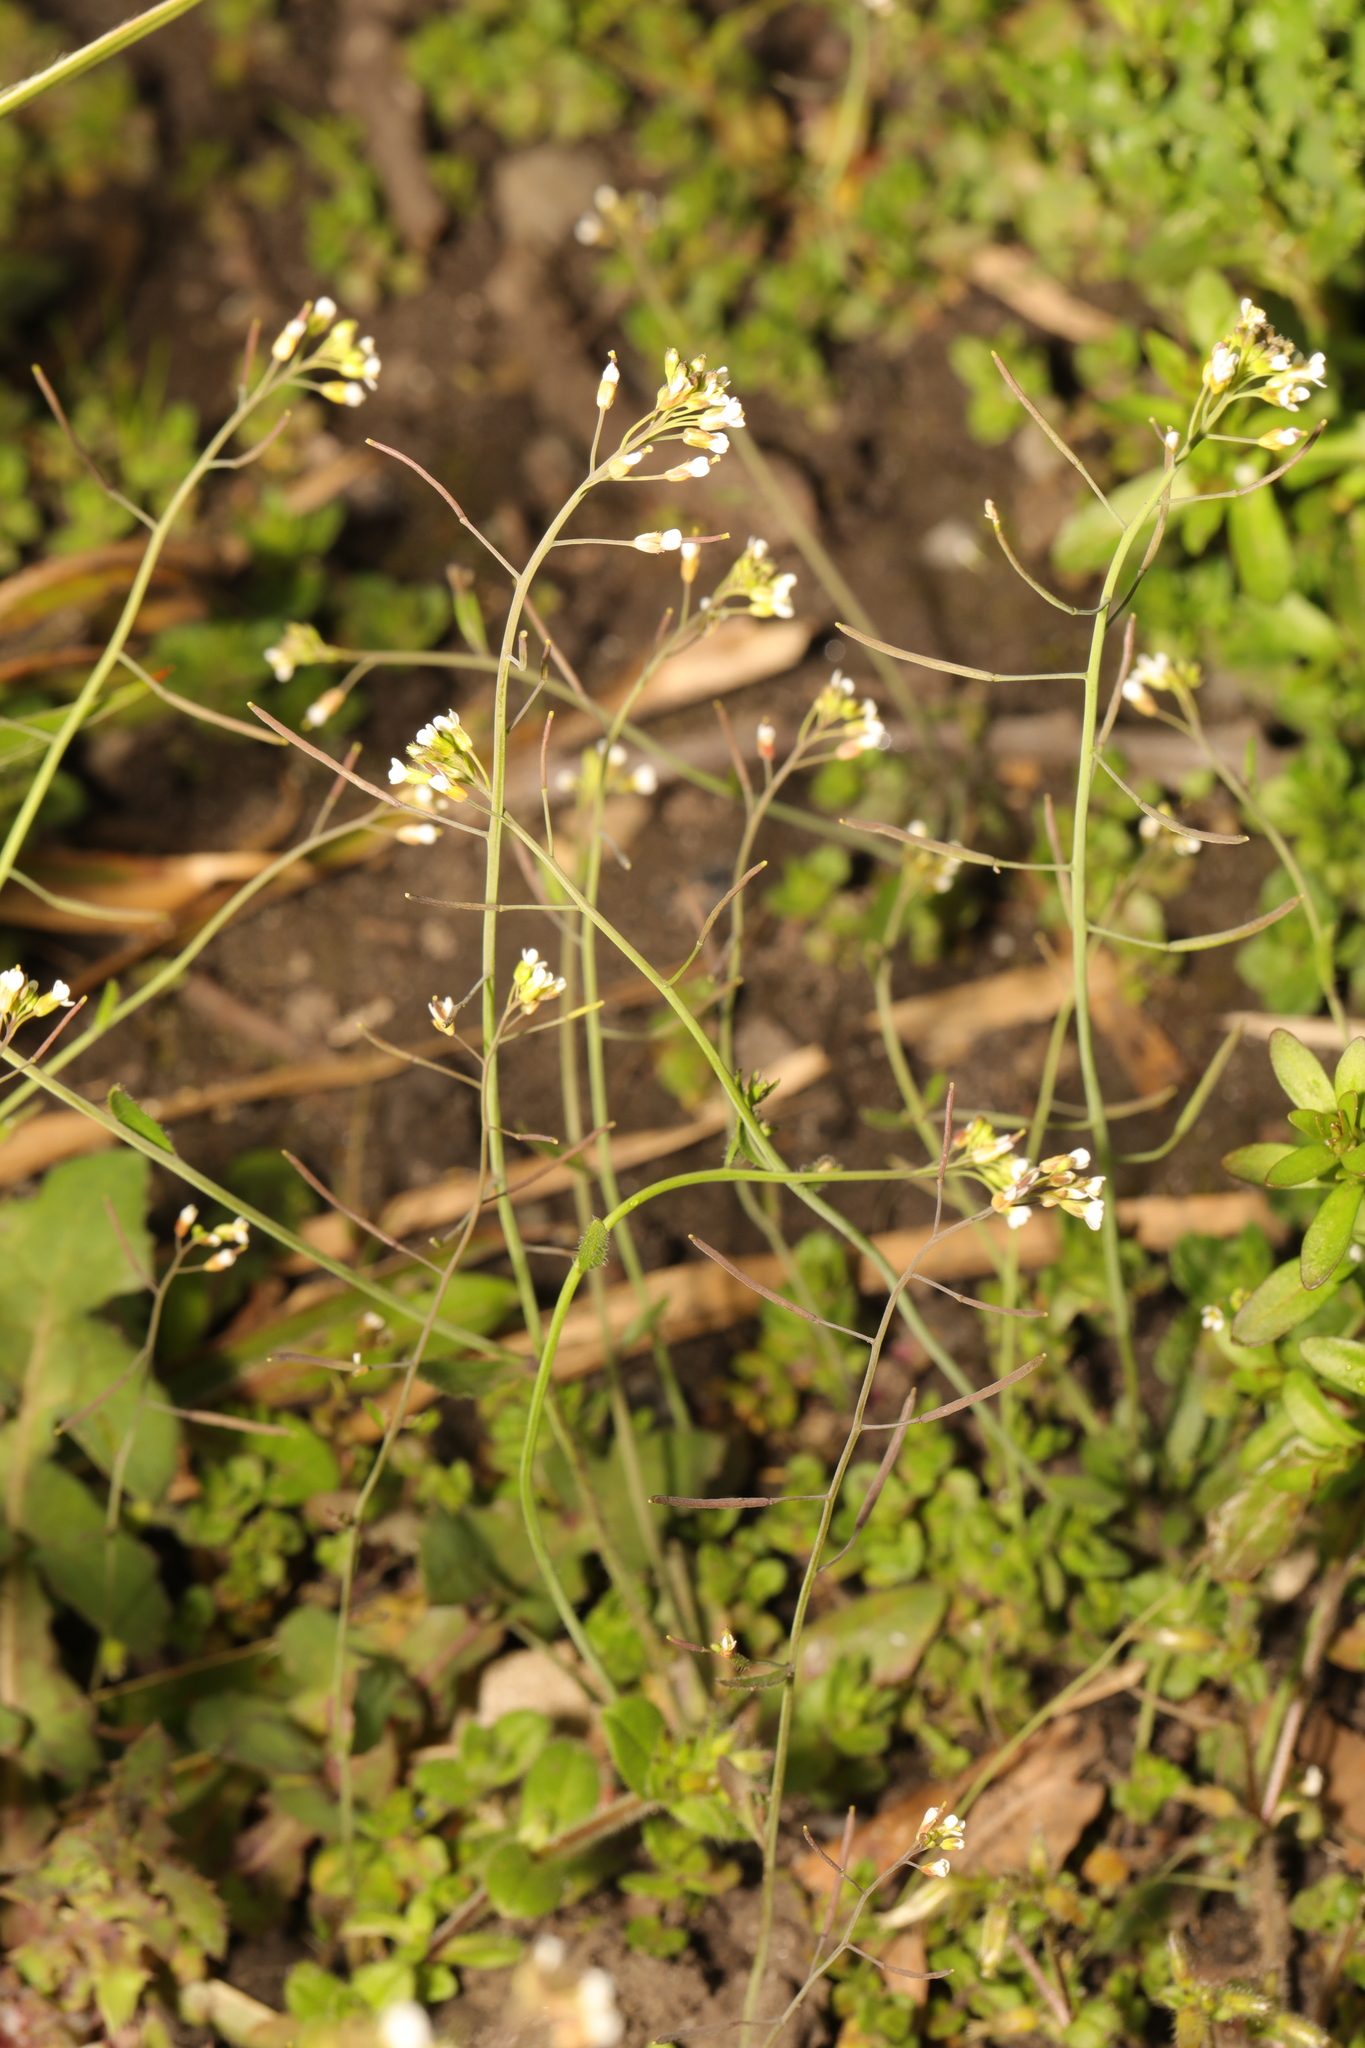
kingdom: Plantae
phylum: Tracheophyta
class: Magnoliopsida
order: Brassicales
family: Brassicaceae
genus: Arabidopsis
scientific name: Arabidopsis thaliana
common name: Thale cress
